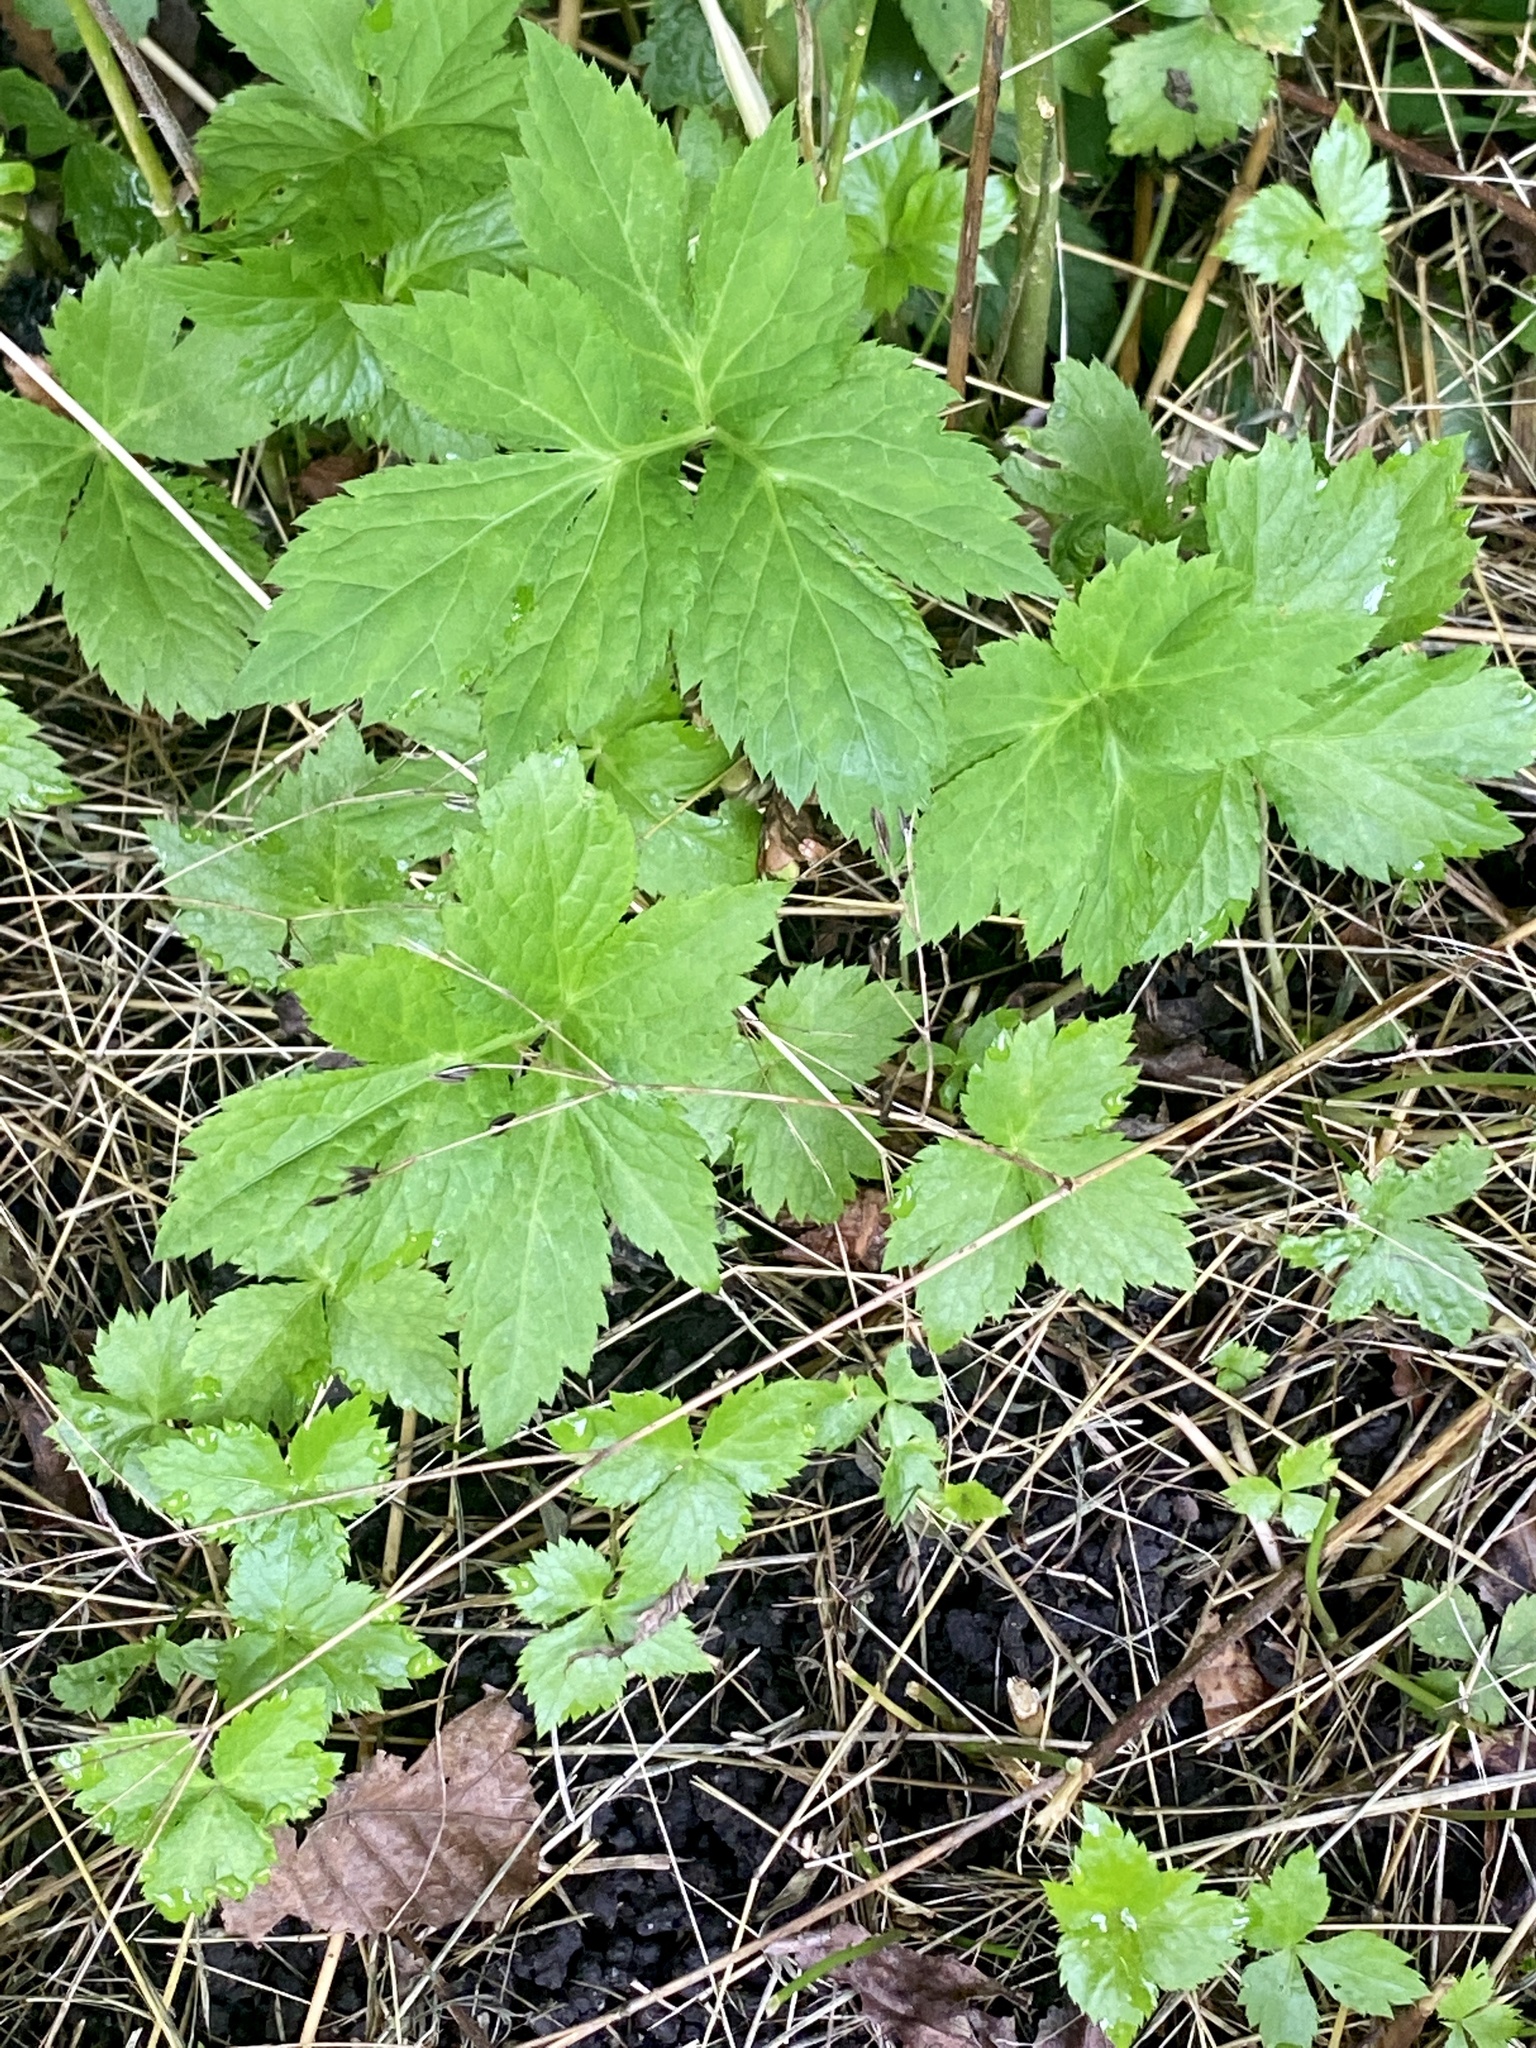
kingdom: Plantae
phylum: Tracheophyta
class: Magnoliopsida
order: Apiales
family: Apiaceae
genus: Cryptotaenia
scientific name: Cryptotaenia canadensis
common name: Honewort
